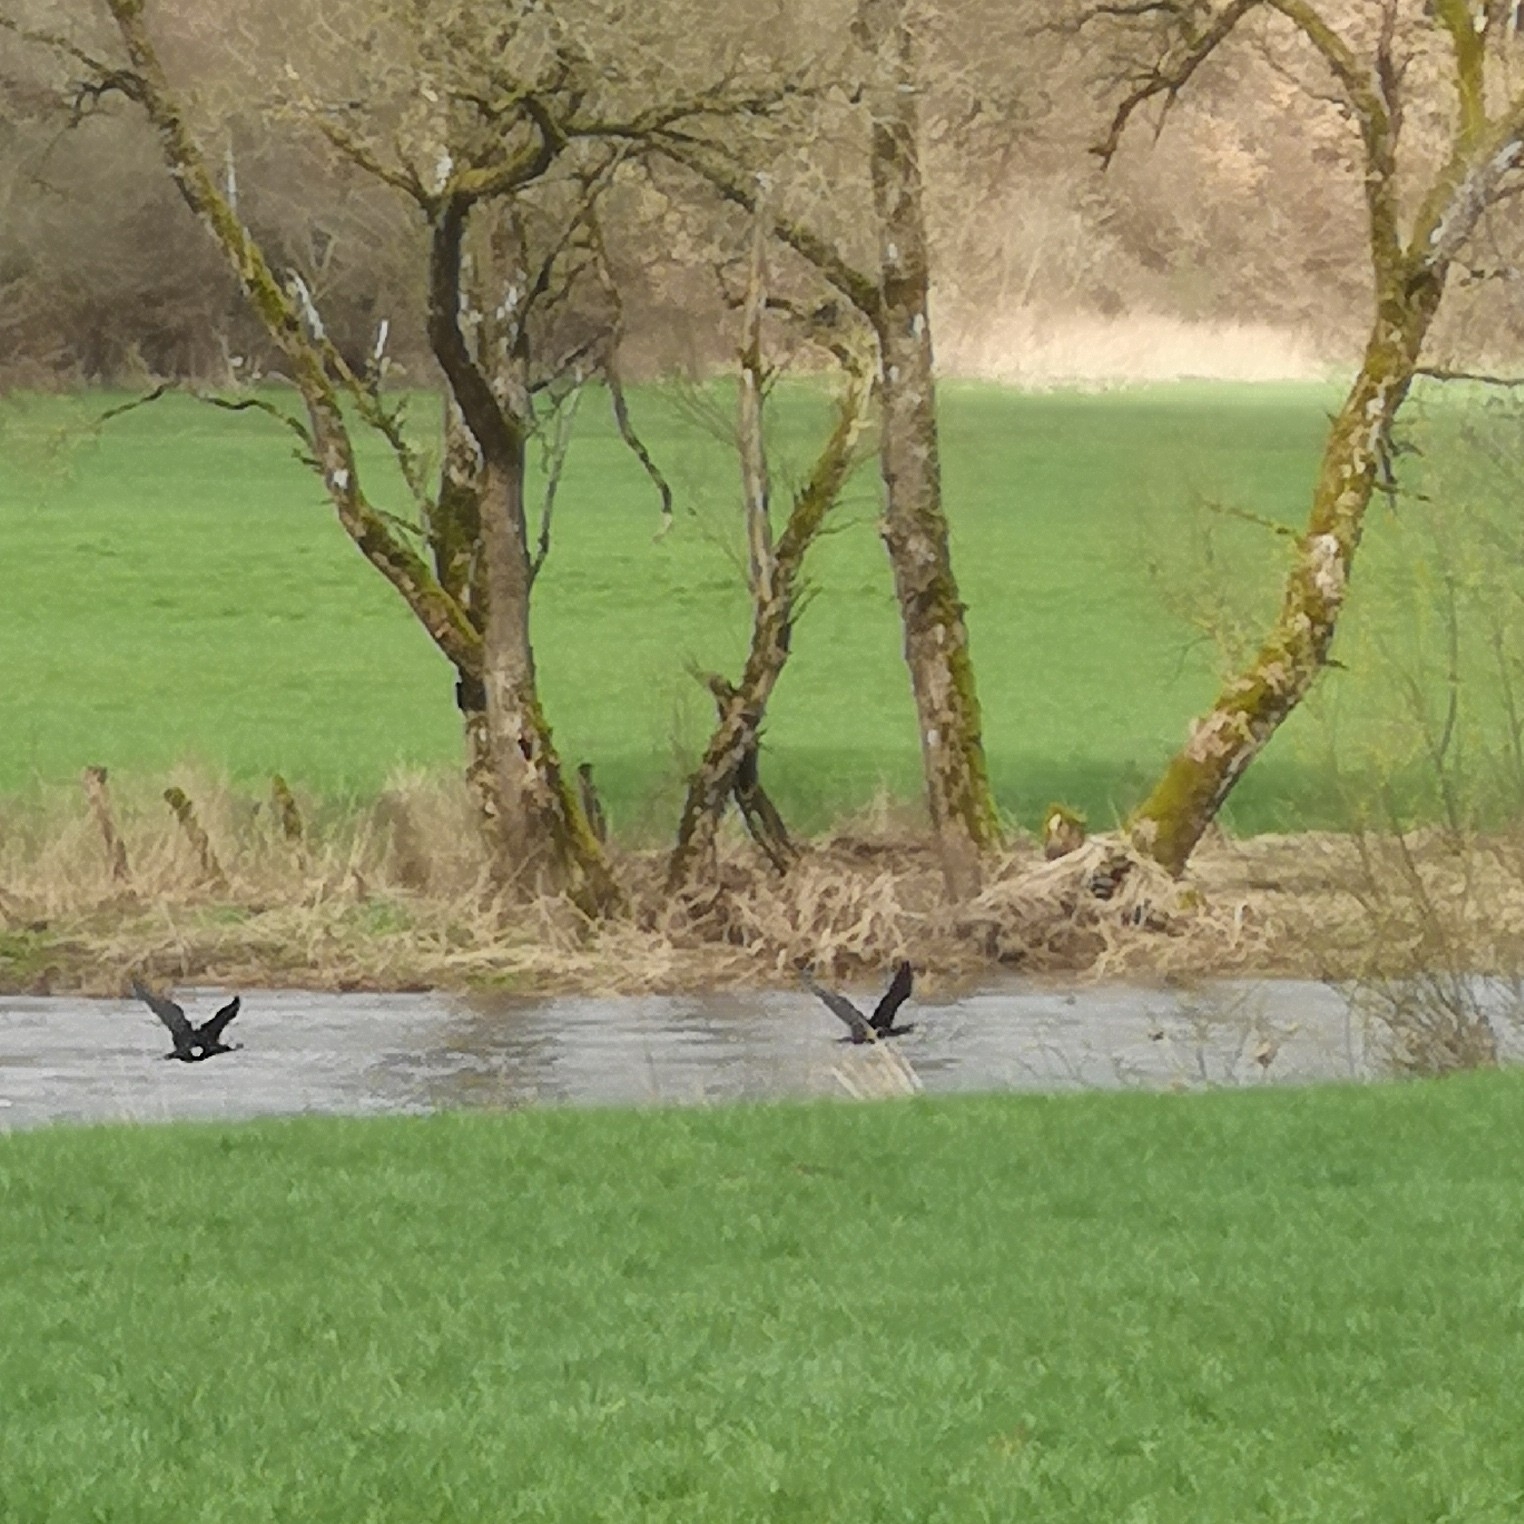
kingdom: Animalia
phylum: Chordata
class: Aves
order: Suliformes
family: Phalacrocoracidae
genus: Phalacrocorax
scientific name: Phalacrocorax carbo
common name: Great cormorant
